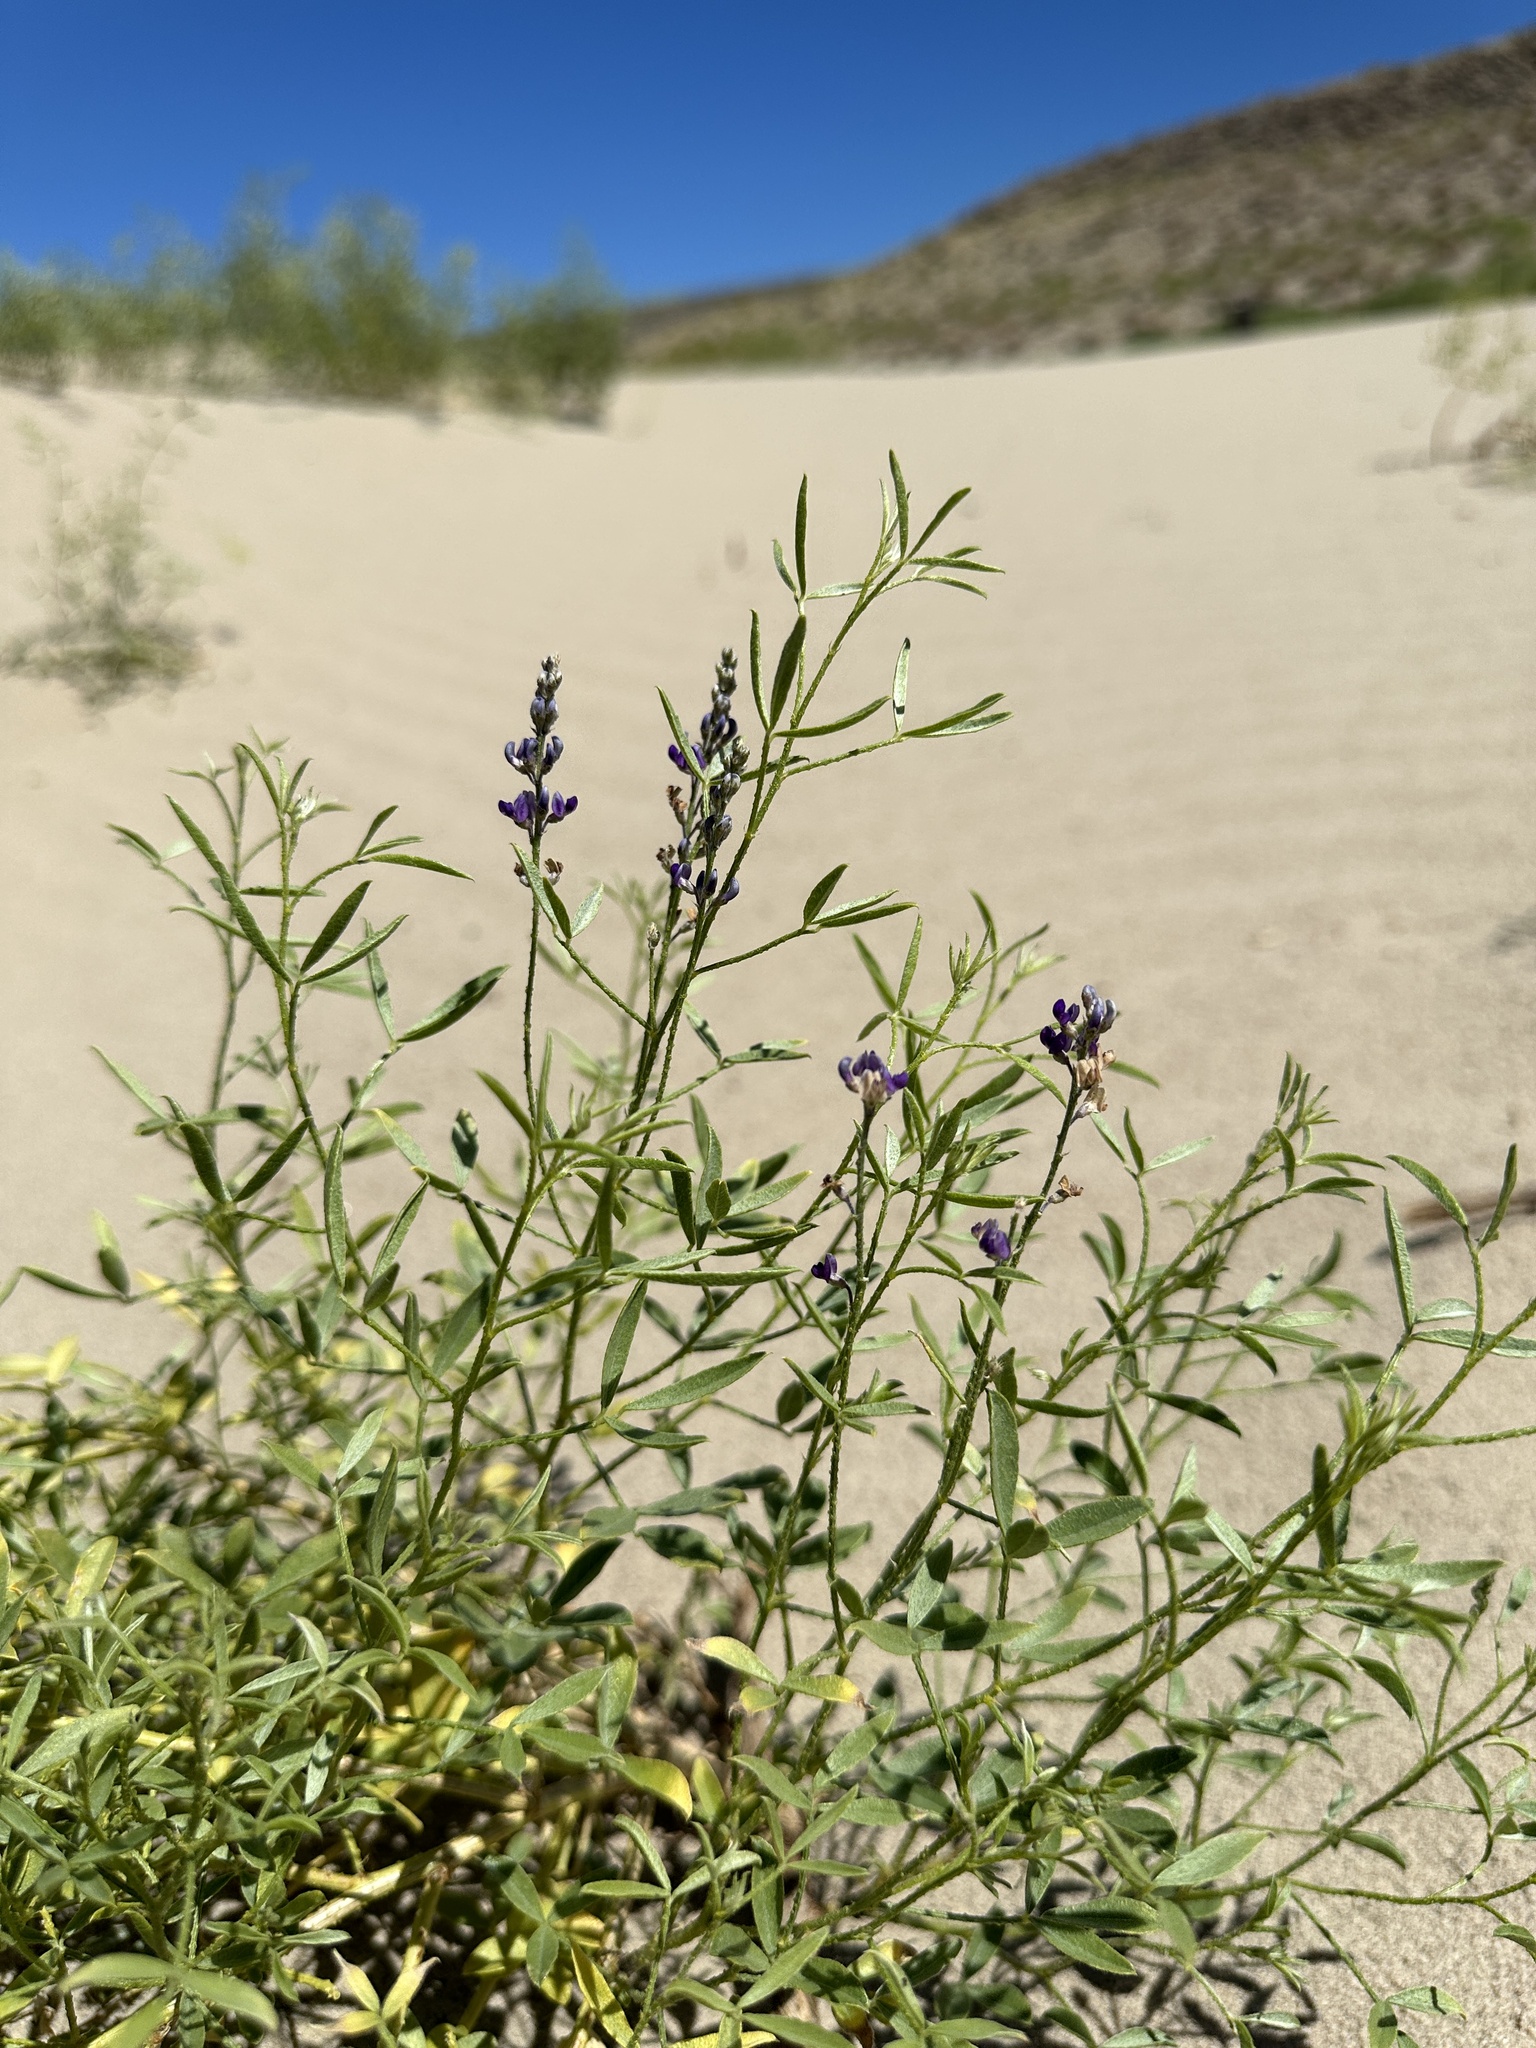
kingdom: Plantae
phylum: Tracheophyta
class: Magnoliopsida
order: Fabales
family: Fabaceae
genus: Ladeania
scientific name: Ladeania lanceolata
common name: Dune scurf-pea
